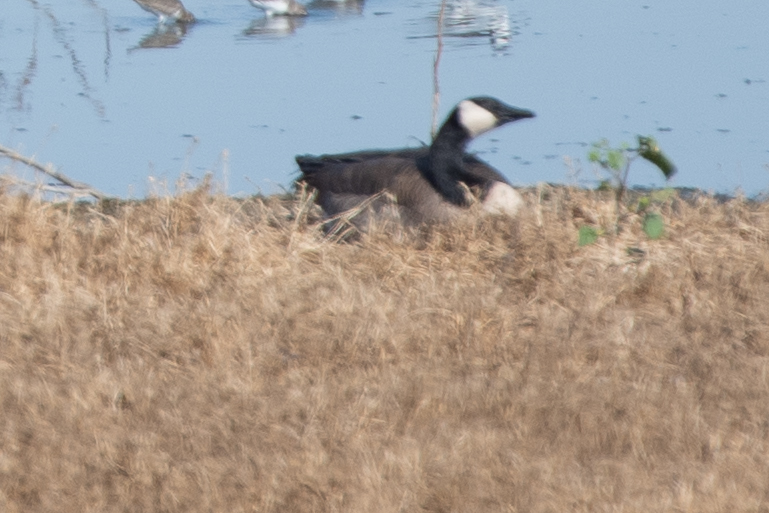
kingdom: Animalia
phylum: Chordata
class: Aves
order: Anseriformes
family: Anatidae
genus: Branta
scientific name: Branta canadensis
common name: Canada goose
